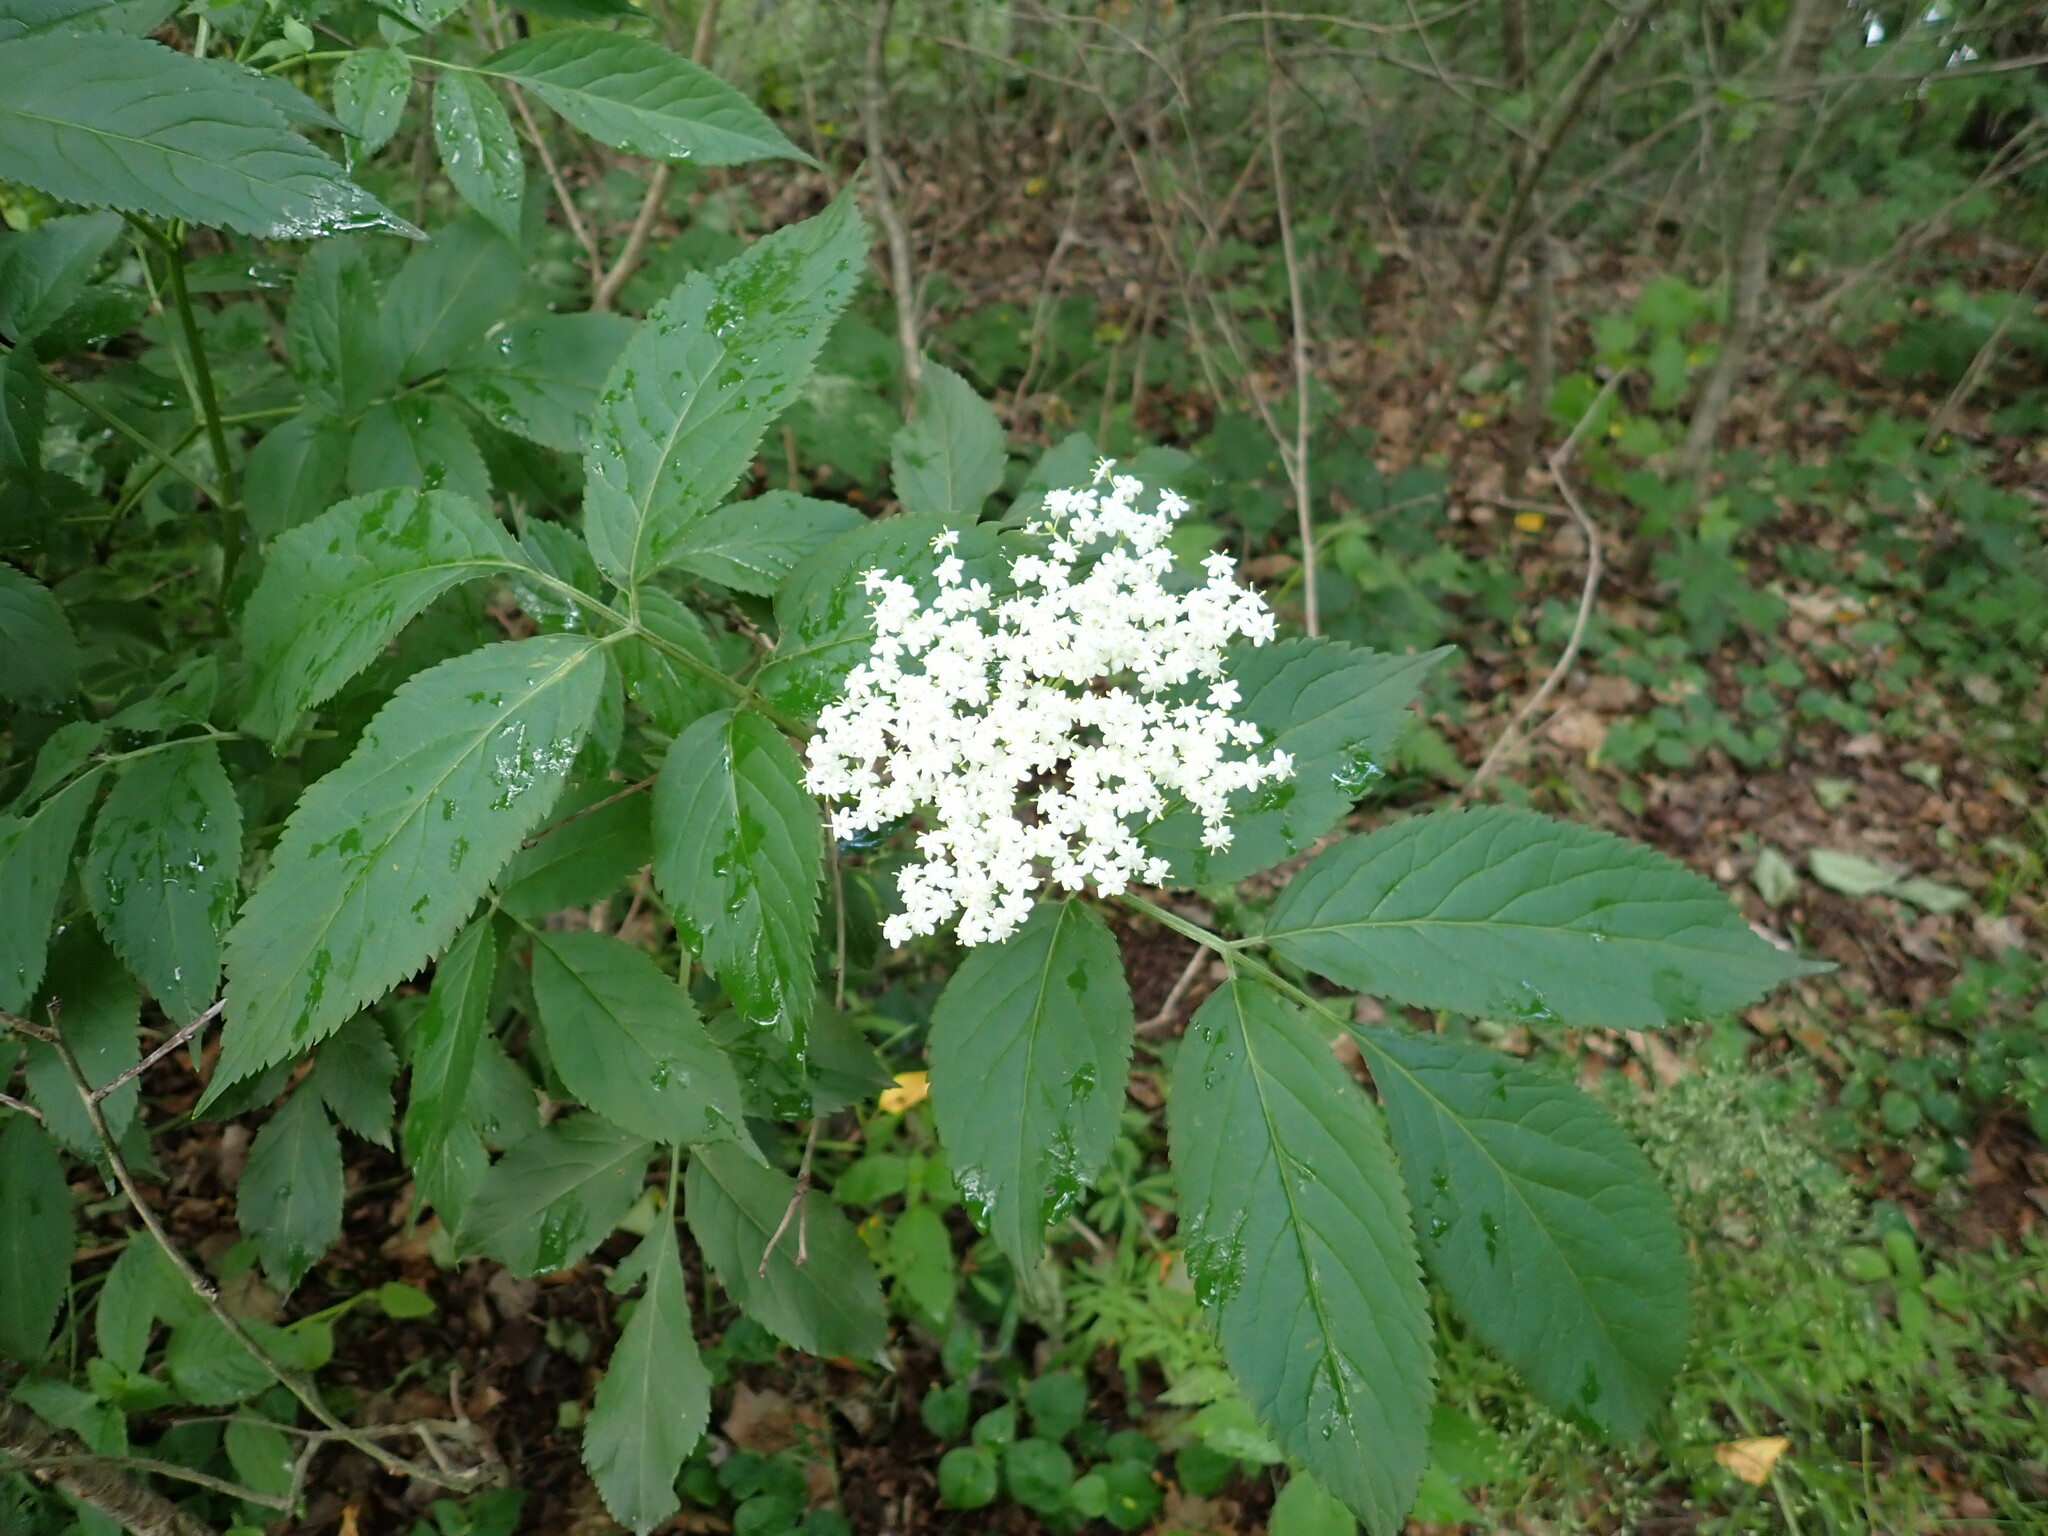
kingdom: Plantae
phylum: Tracheophyta
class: Magnoliopsida
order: Dipsacales
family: Viburnaceae
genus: Sambucus
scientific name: Sambucus nigra
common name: Elder
